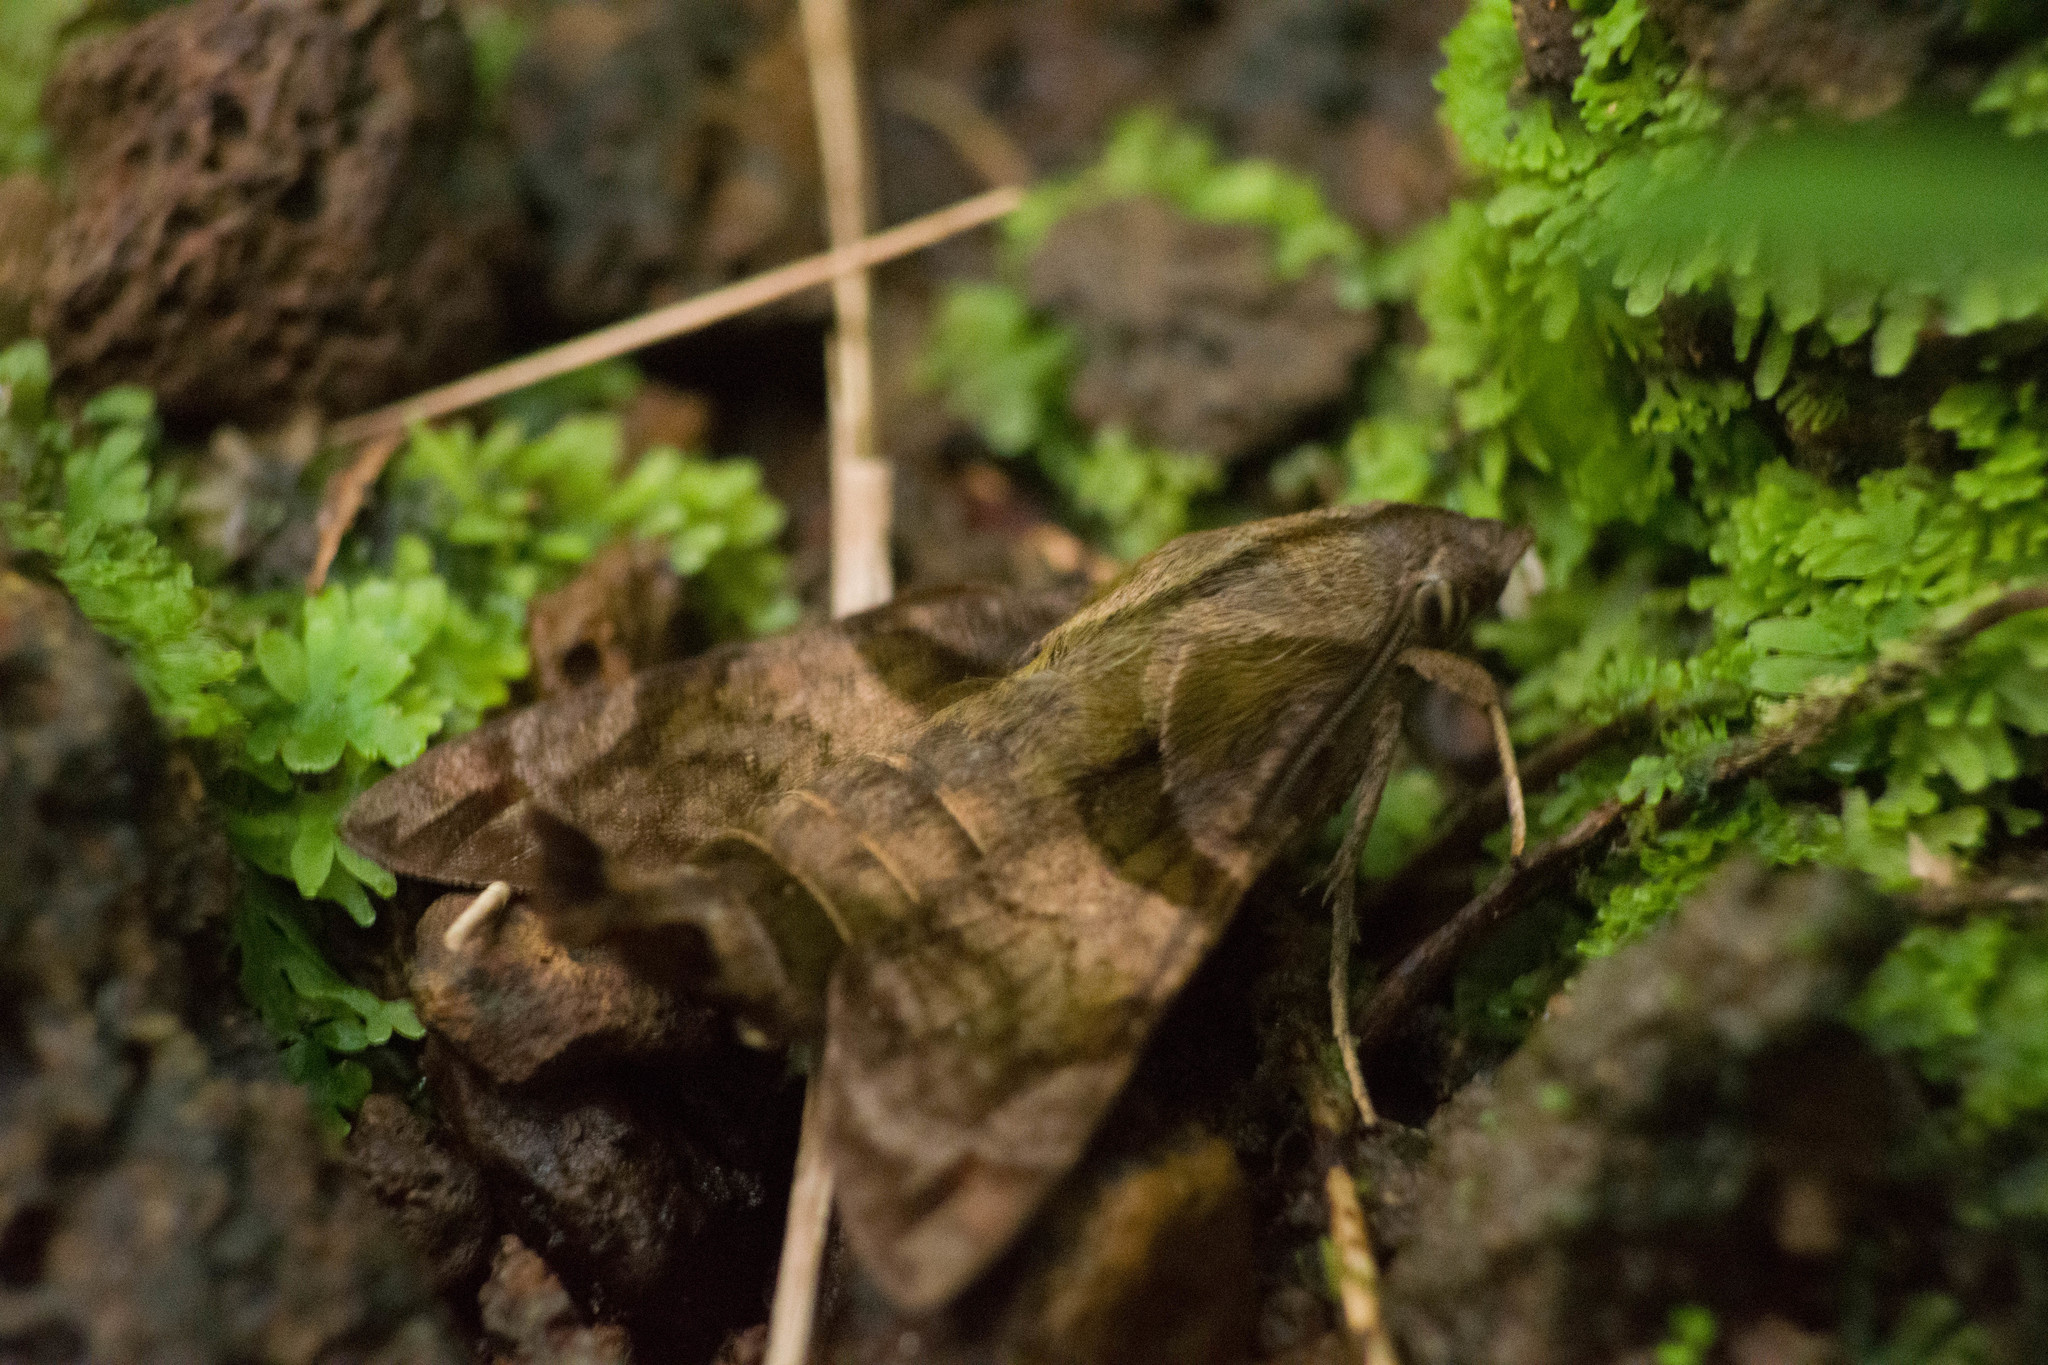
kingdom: Animalia
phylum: Arthropoda
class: Insecta
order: Lepidoptera
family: Sphingidae
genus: Macroglossum
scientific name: Macroglossum pyrrhosticta
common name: Hummingbird hawk moth
